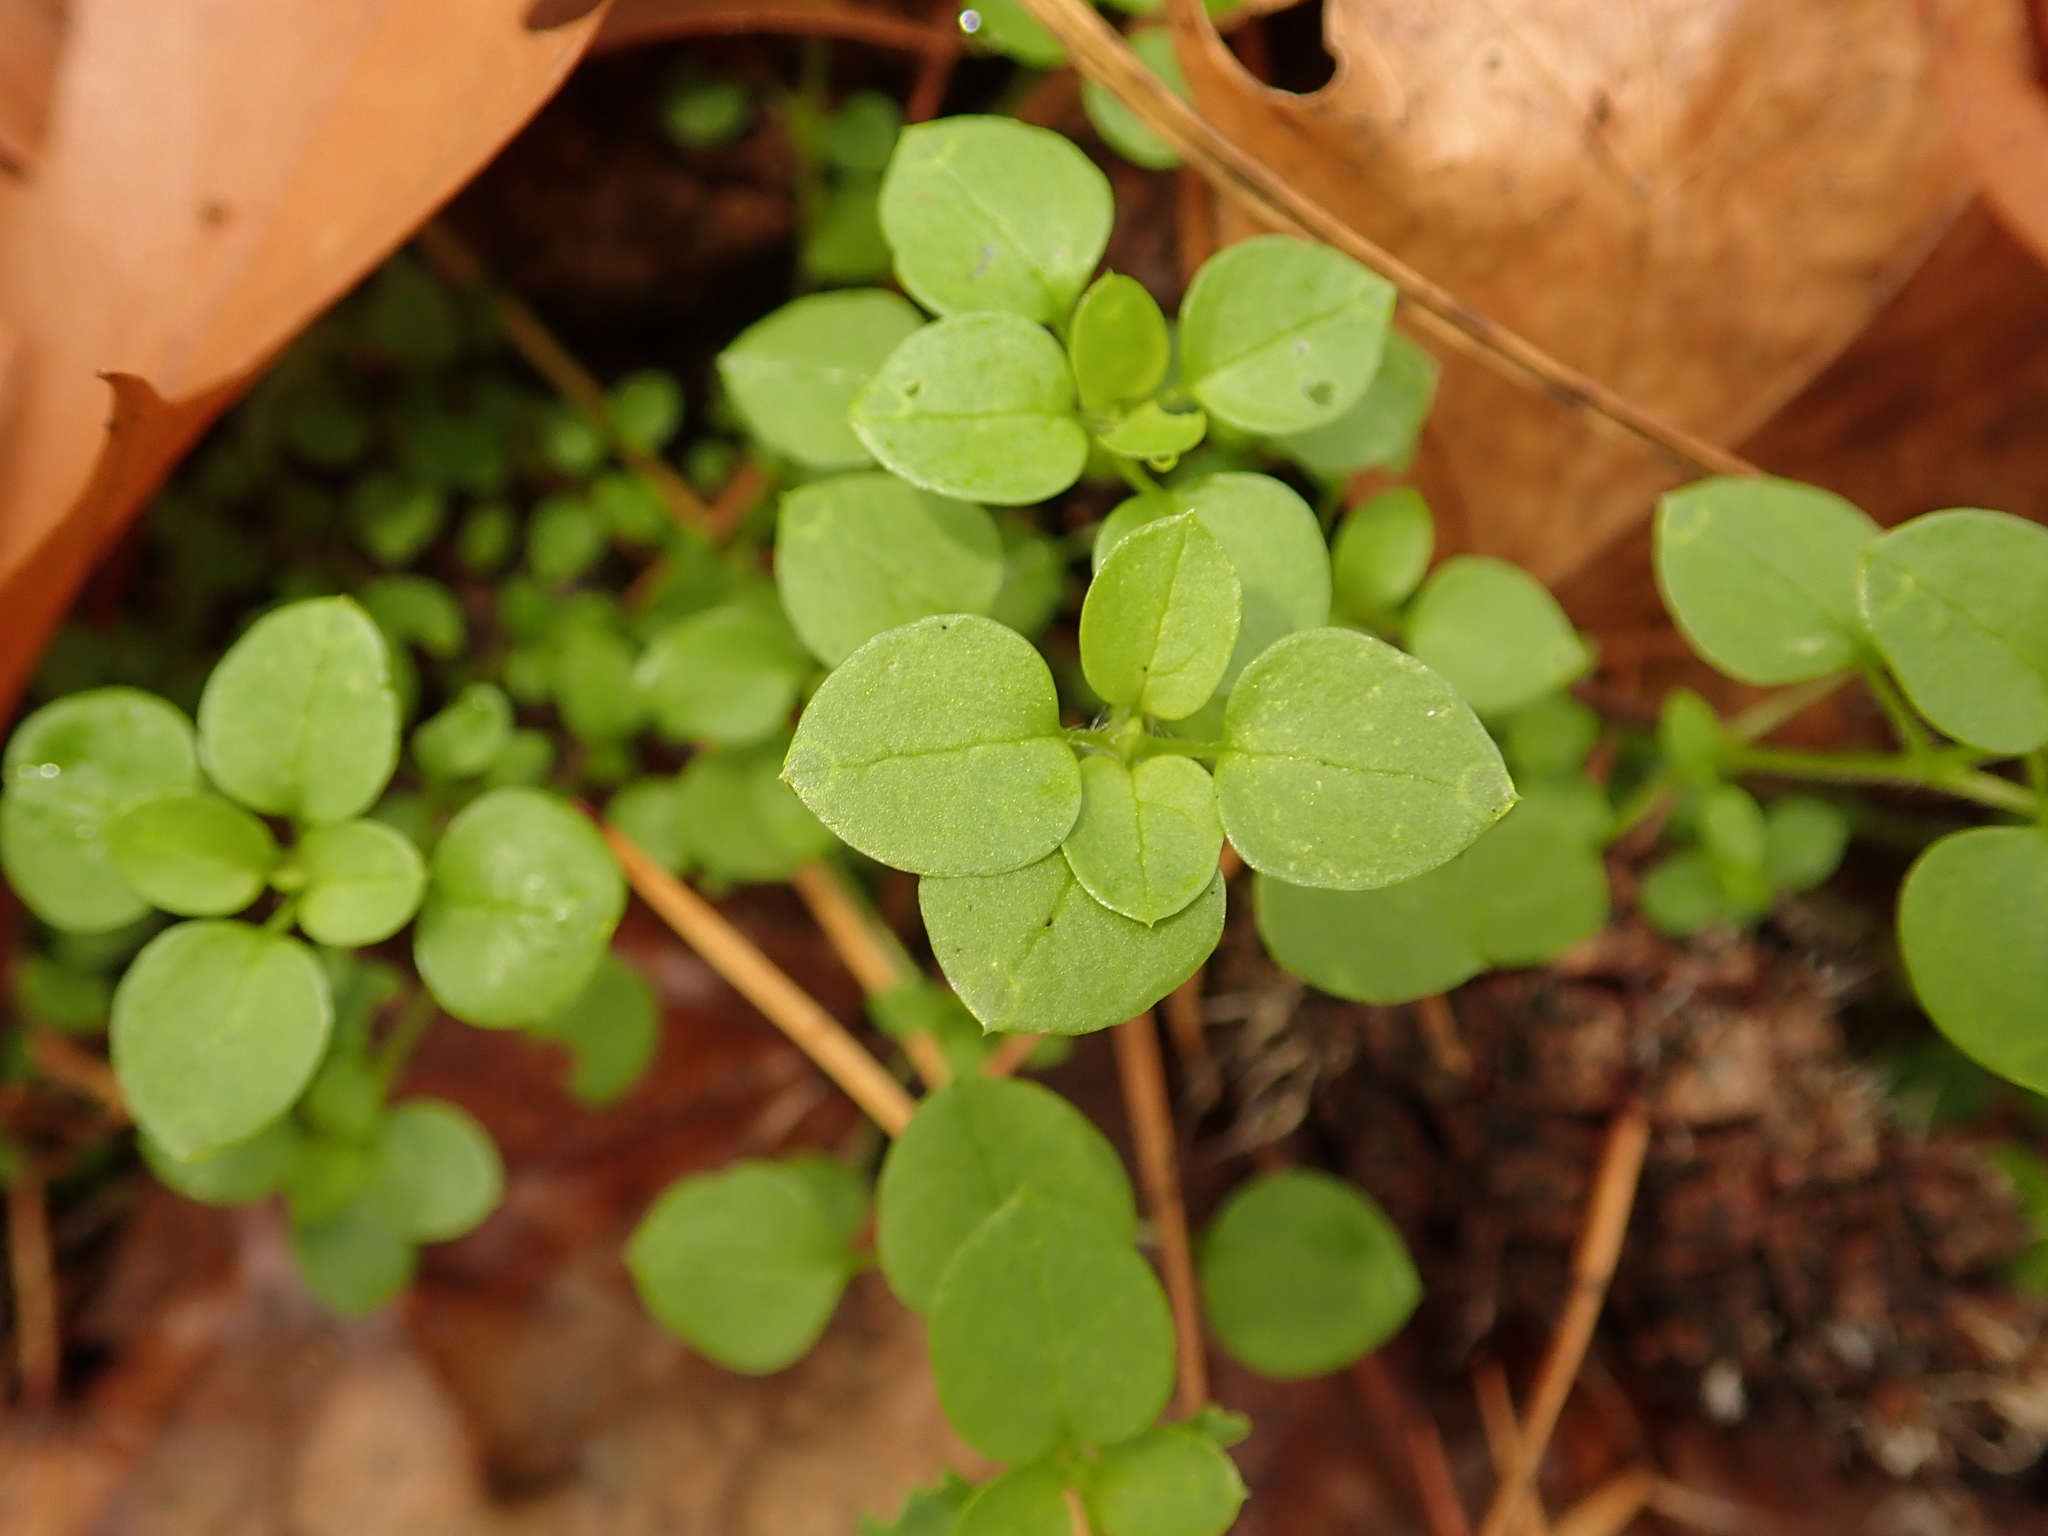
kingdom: Plantae
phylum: Tracheophyta
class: Magnoliopsida
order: Caryophyllales
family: Caryophyllaceae
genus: Stellaria
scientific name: Stellaria media
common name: Common chickweed
